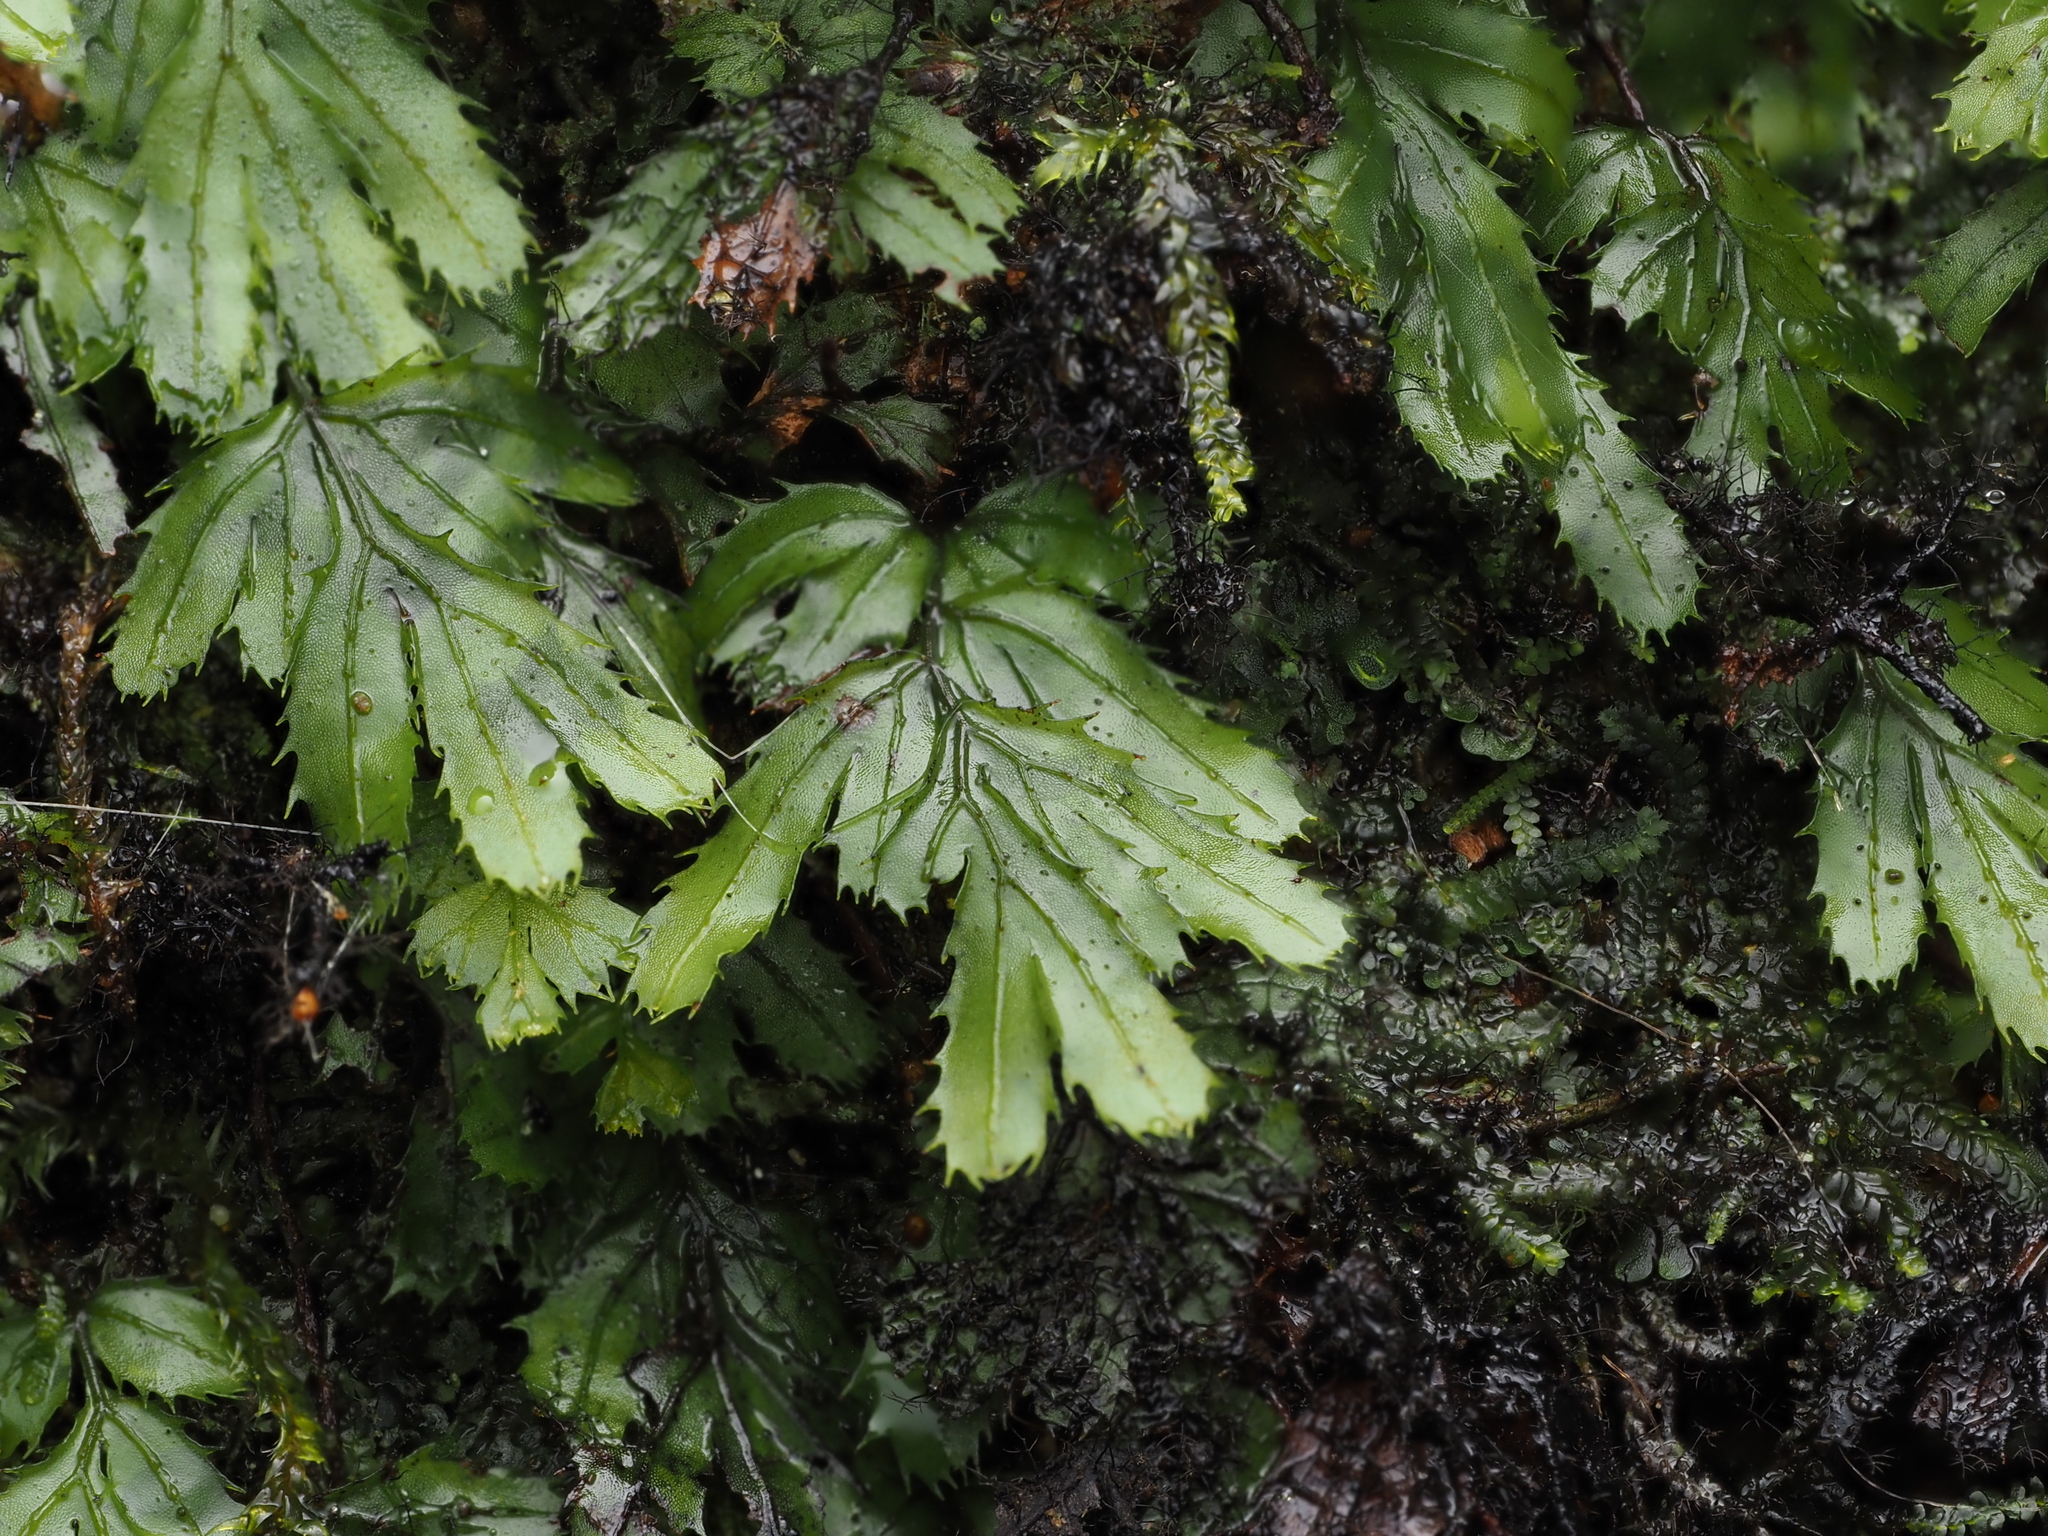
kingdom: Plantae
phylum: Tracheophyta
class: Polypodiopsida
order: Hymenophyllales
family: Hymenophyllaceae
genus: Hymenophyllum
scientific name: Hymenophyllum revolutum
